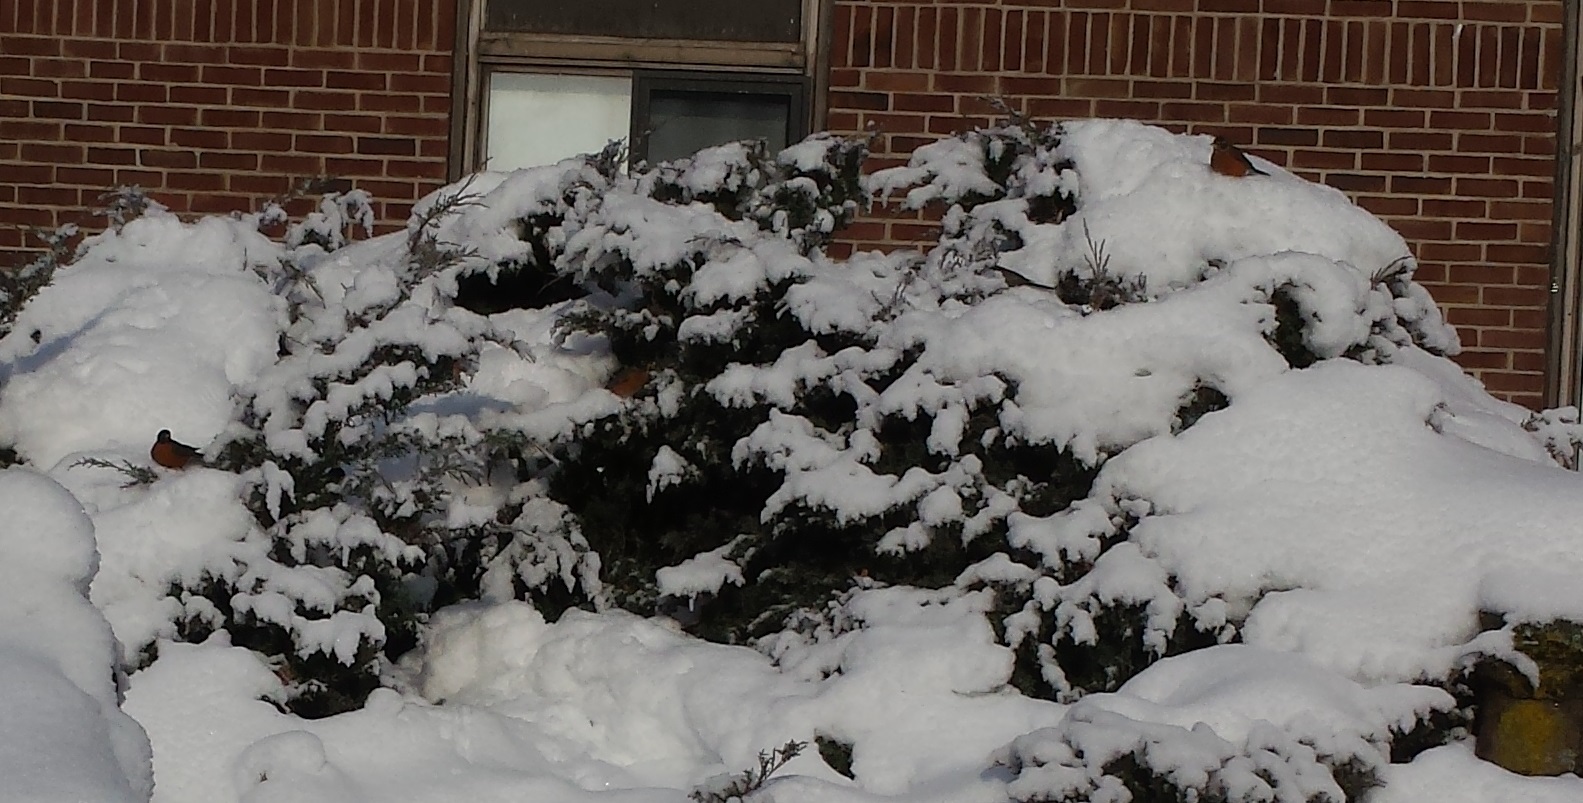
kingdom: Animalia
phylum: Chordata
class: Aves
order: Passeriformes
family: Turdidae
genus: Turdus
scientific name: Turdus migratorius
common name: American robin
